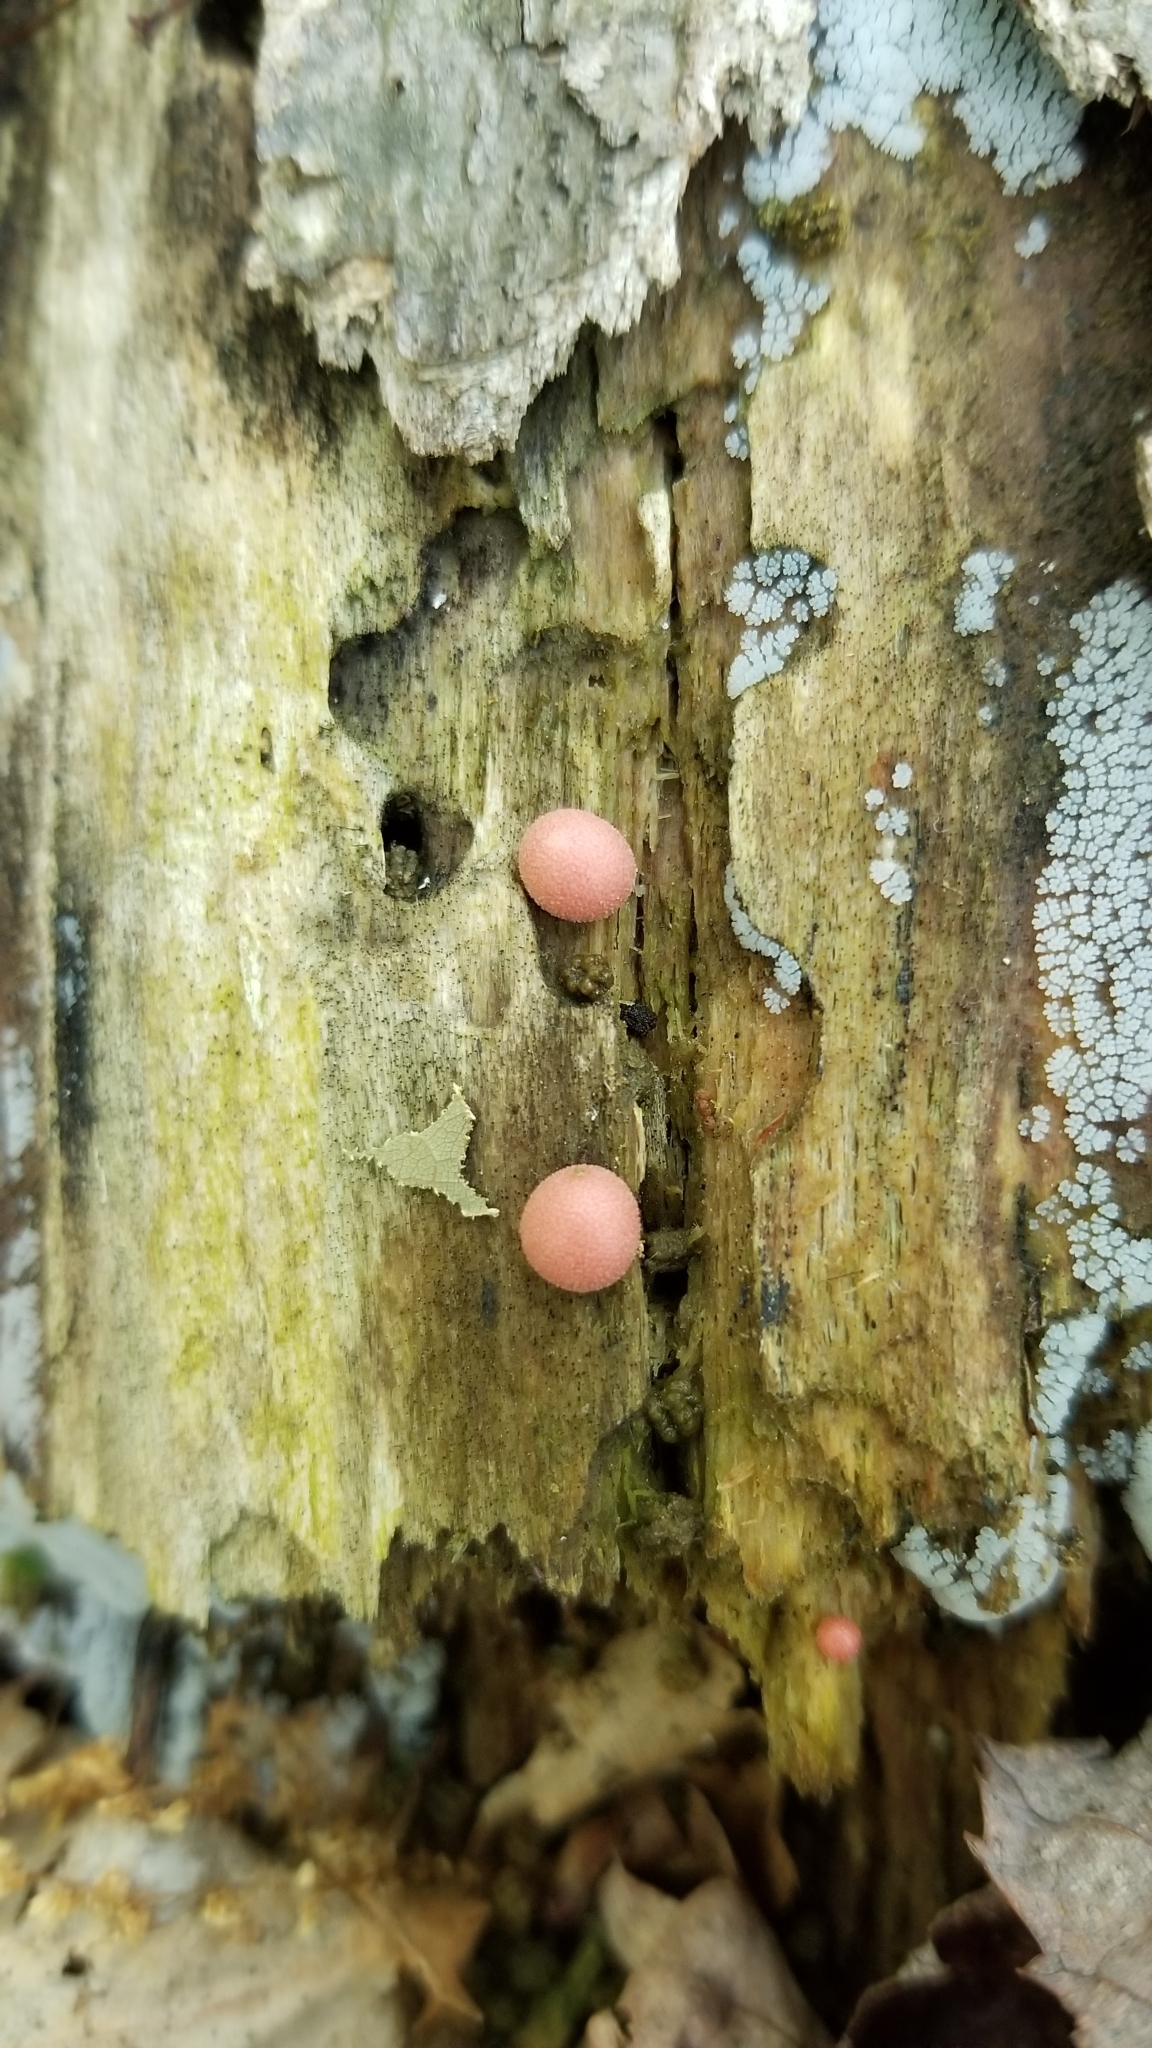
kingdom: Protozoa
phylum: Mycetozoa
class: Myxomycetes
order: Cribrariales
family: Tubiferaceae
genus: Lycogala
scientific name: Lycogala epidendrum
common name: Wolf's milk
